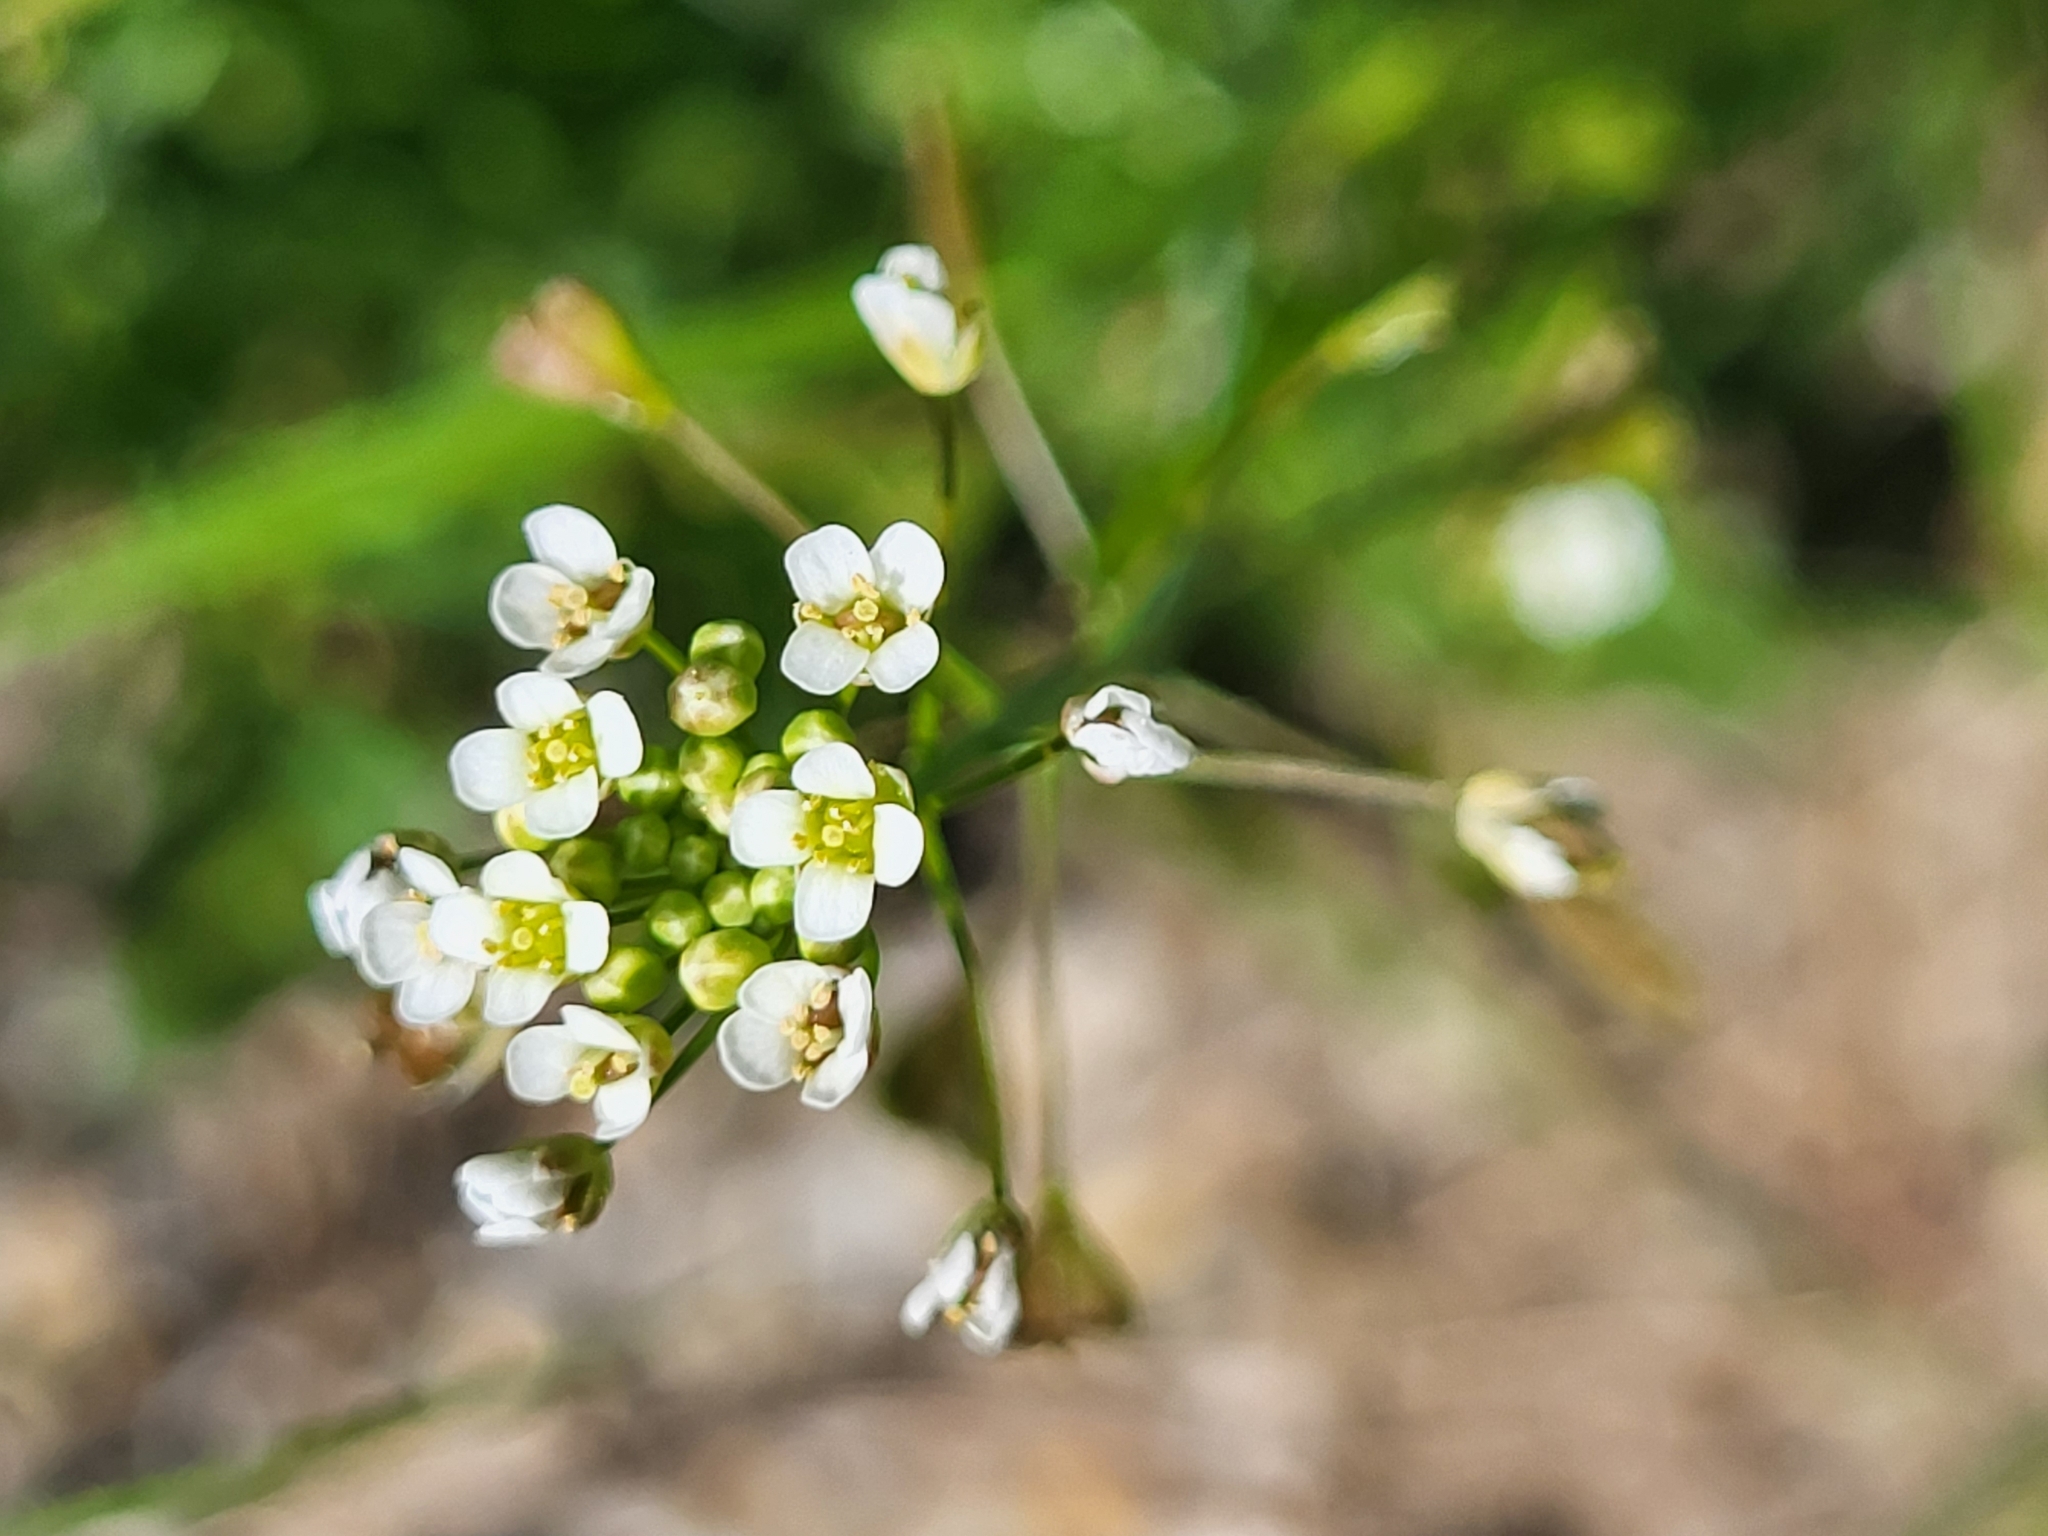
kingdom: Plantae
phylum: Tracheophyta
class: Magnoliopsida
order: Brassicales
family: Brassicaceae
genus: Capsella
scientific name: Capsella bursa-pastoris
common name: Shepherd's purse
